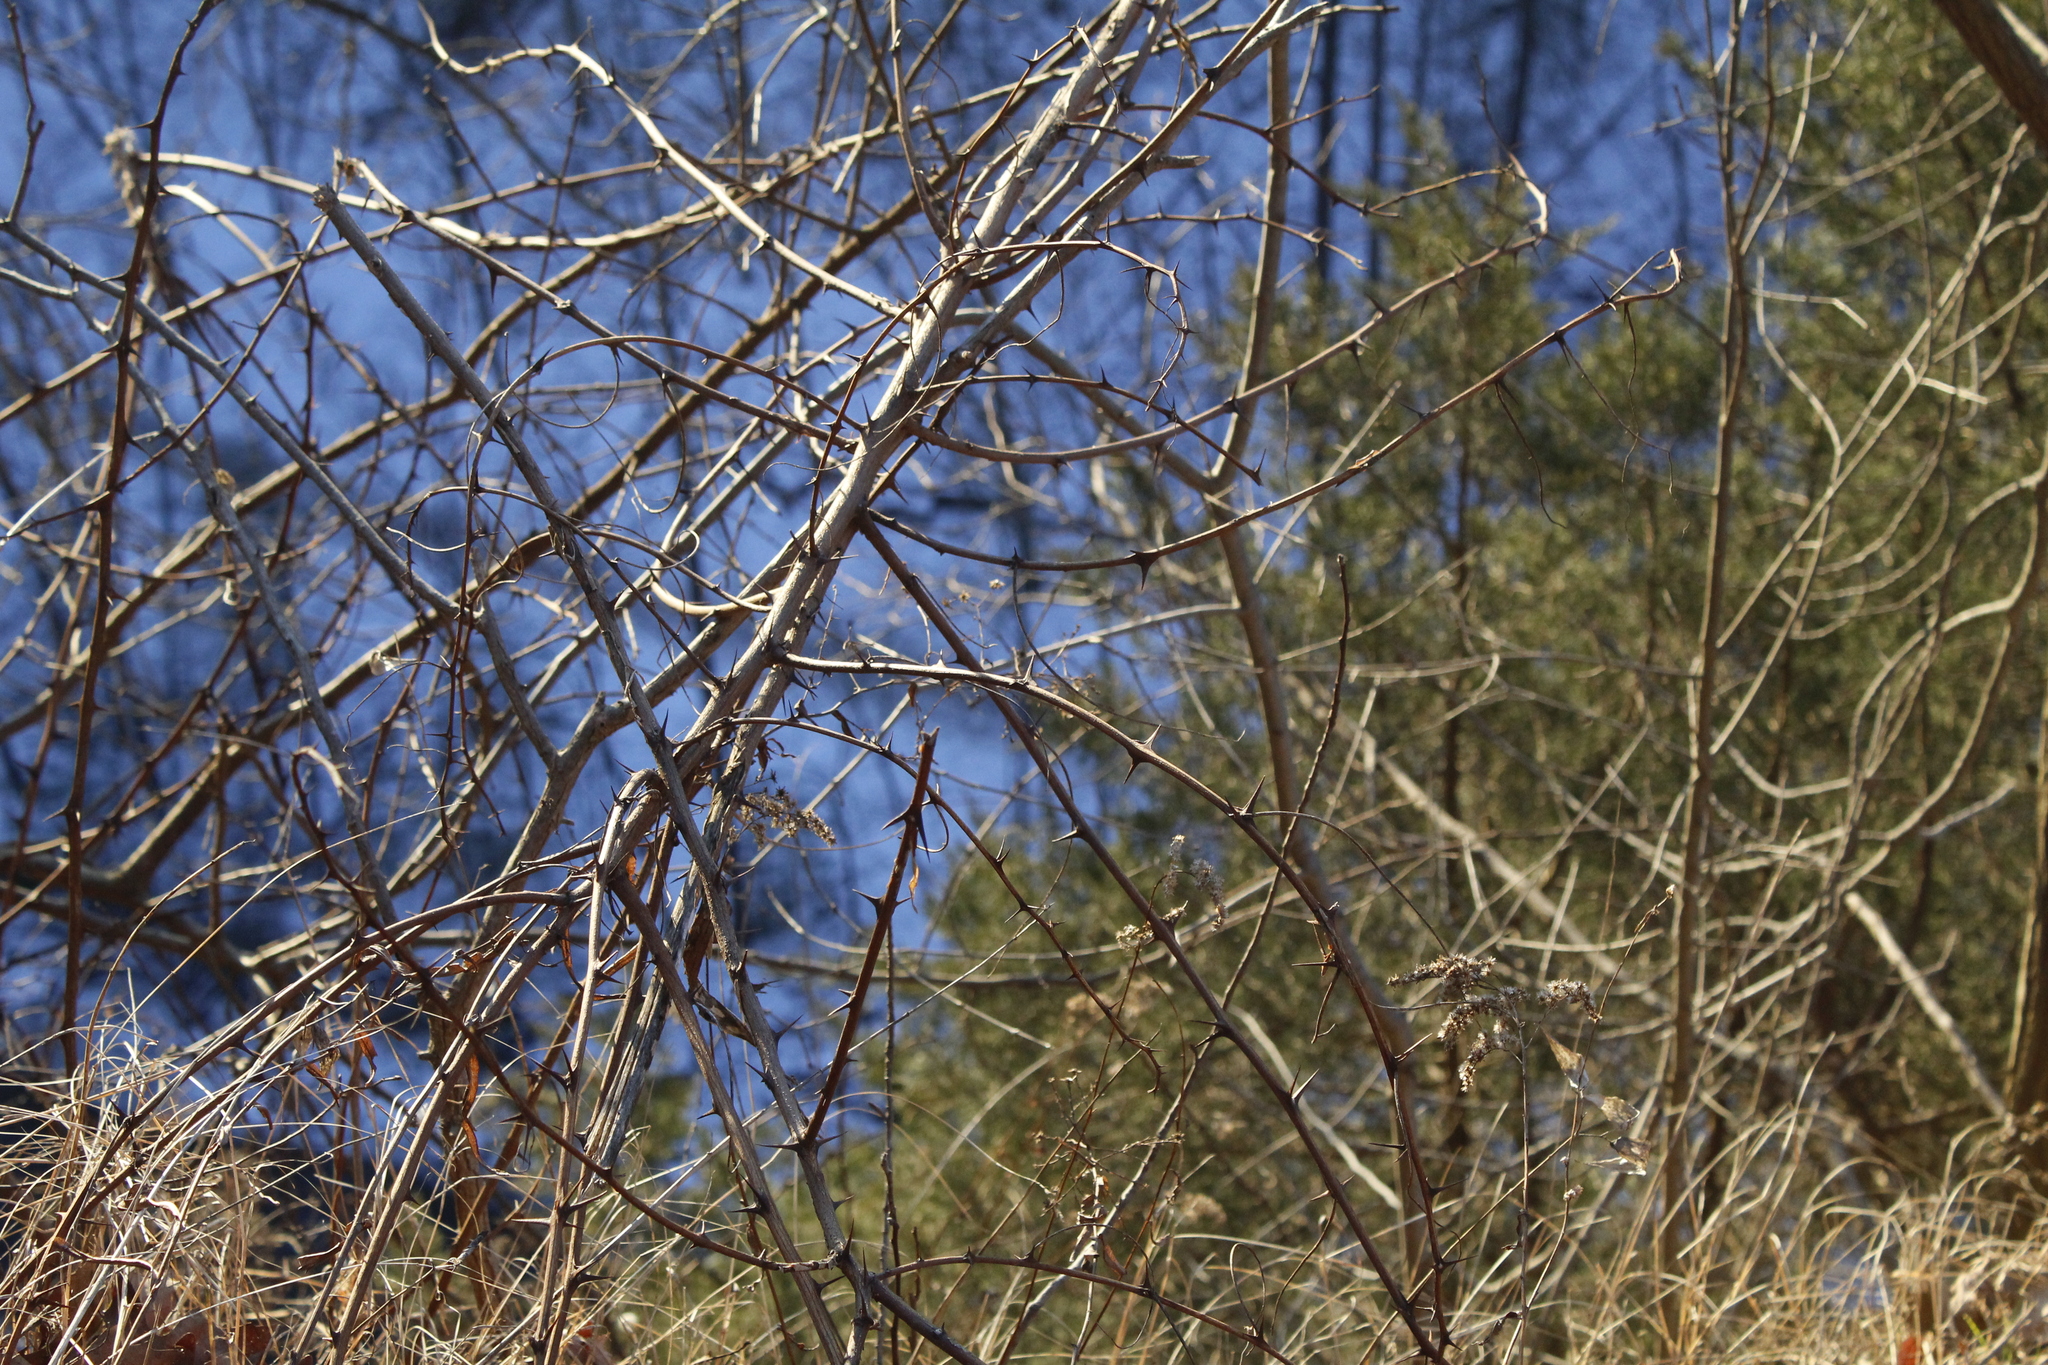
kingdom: Plantae
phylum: Tracheophyta
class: Magnoliopsida
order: Fabales
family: Fabaceae
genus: Robinia
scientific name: Robinia pseudoacacia
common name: Black locust
